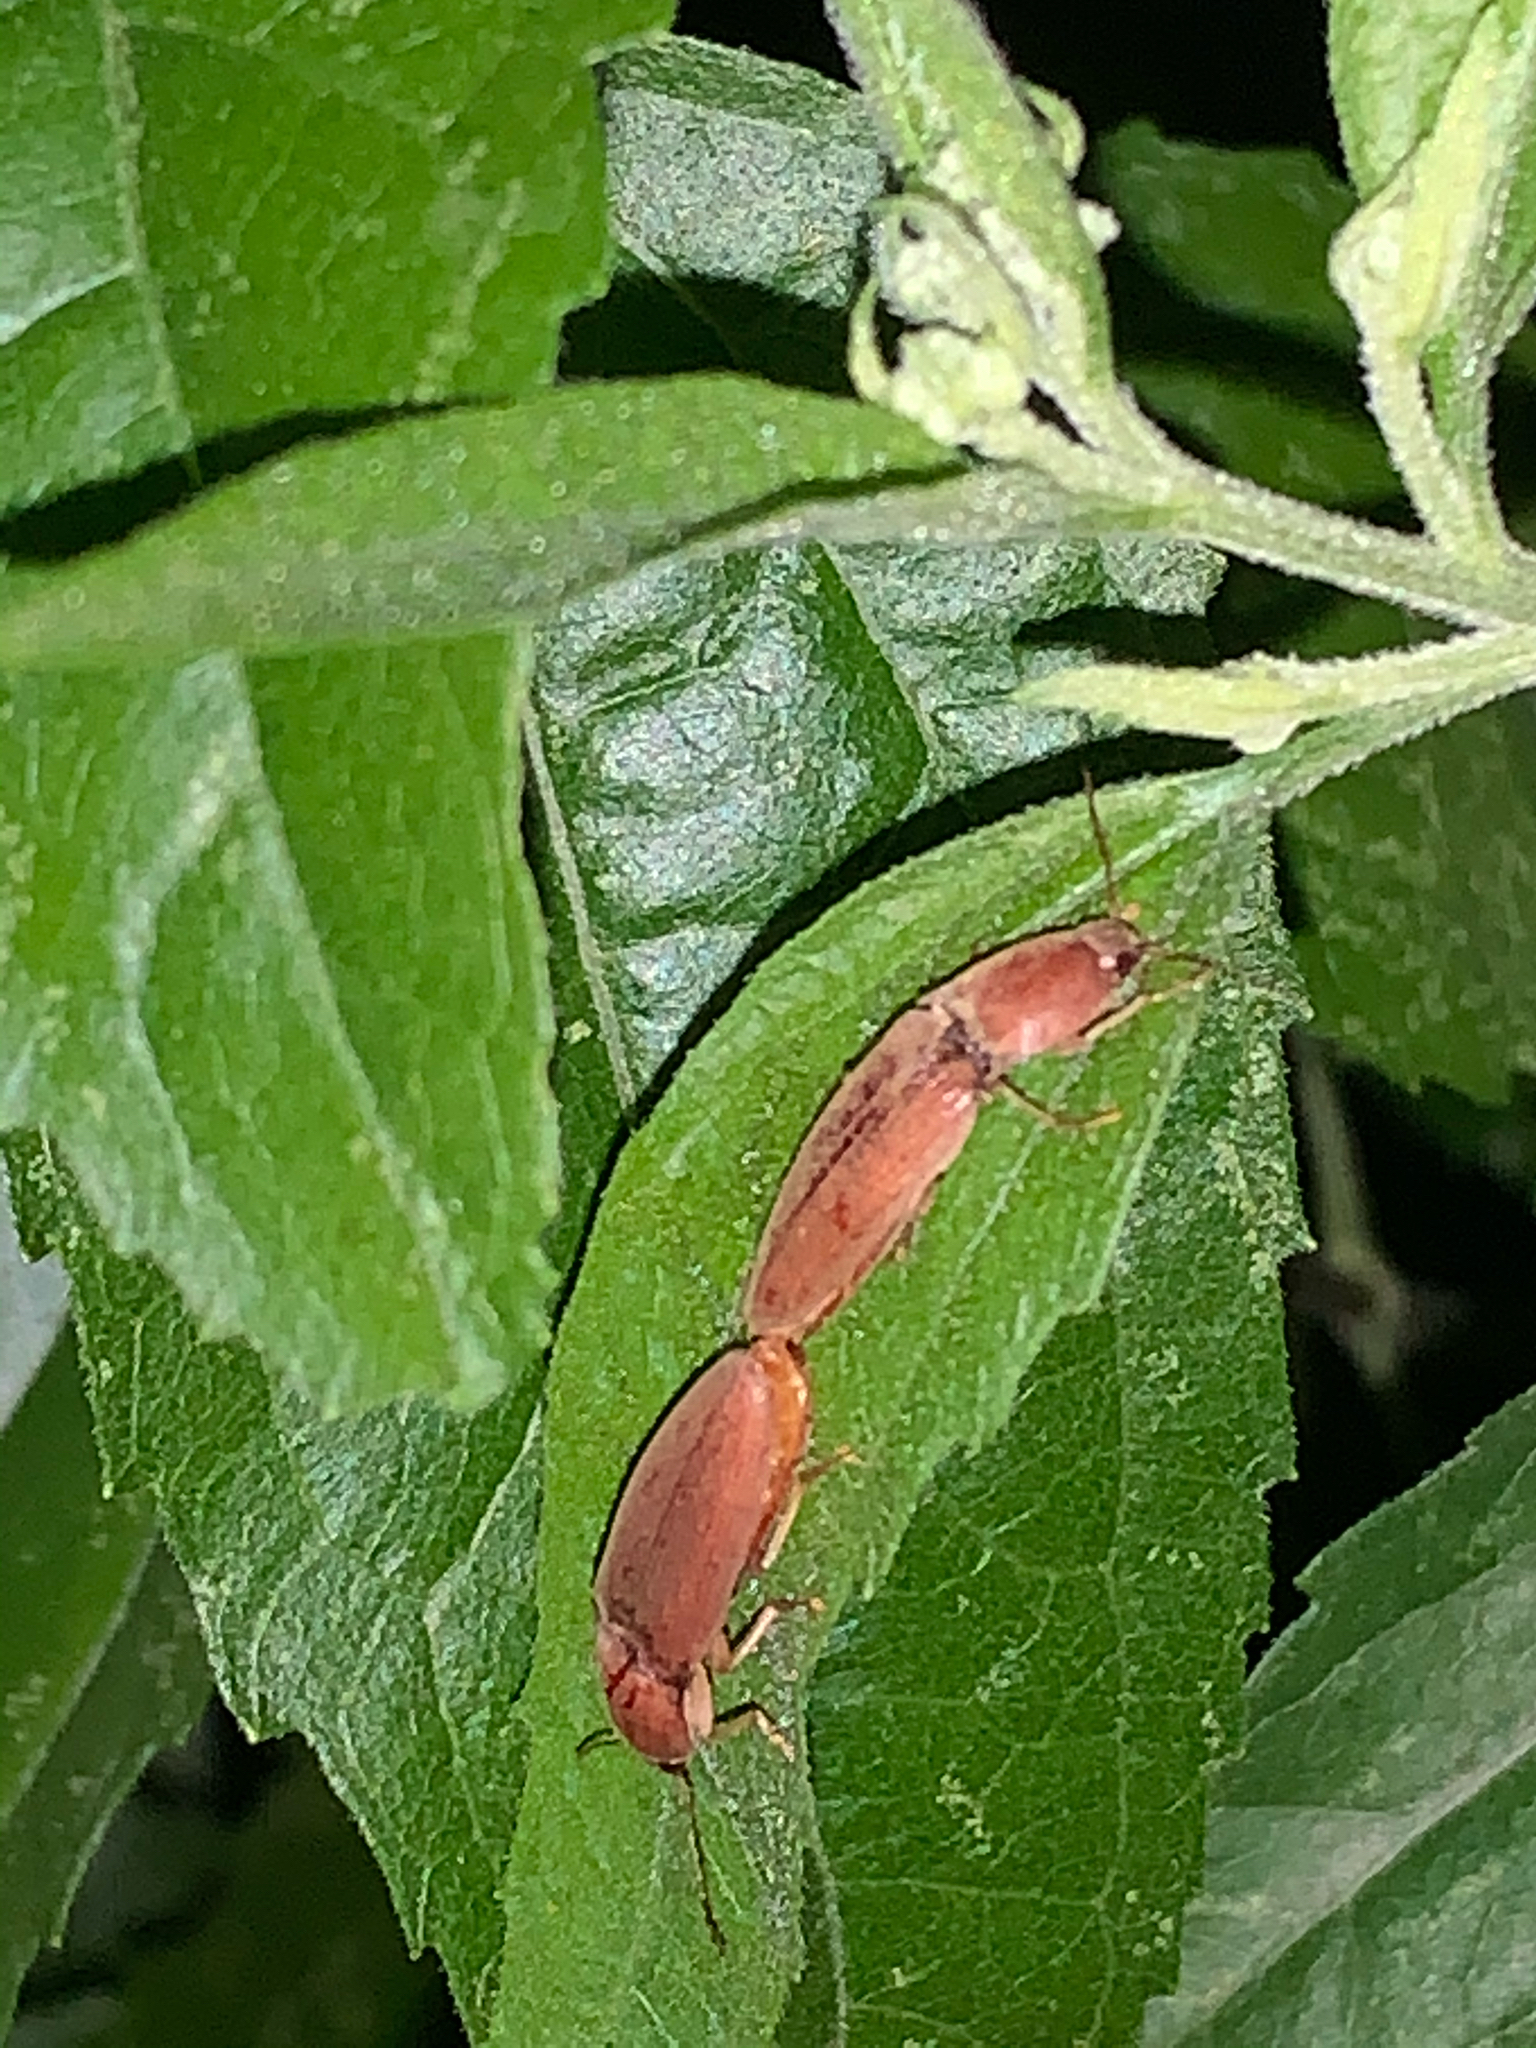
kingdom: Animalia
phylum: Arthropoda
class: Insecta
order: Coleoptera
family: Elateridae
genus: Monocrepidius
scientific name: Monocrepidius lividus
